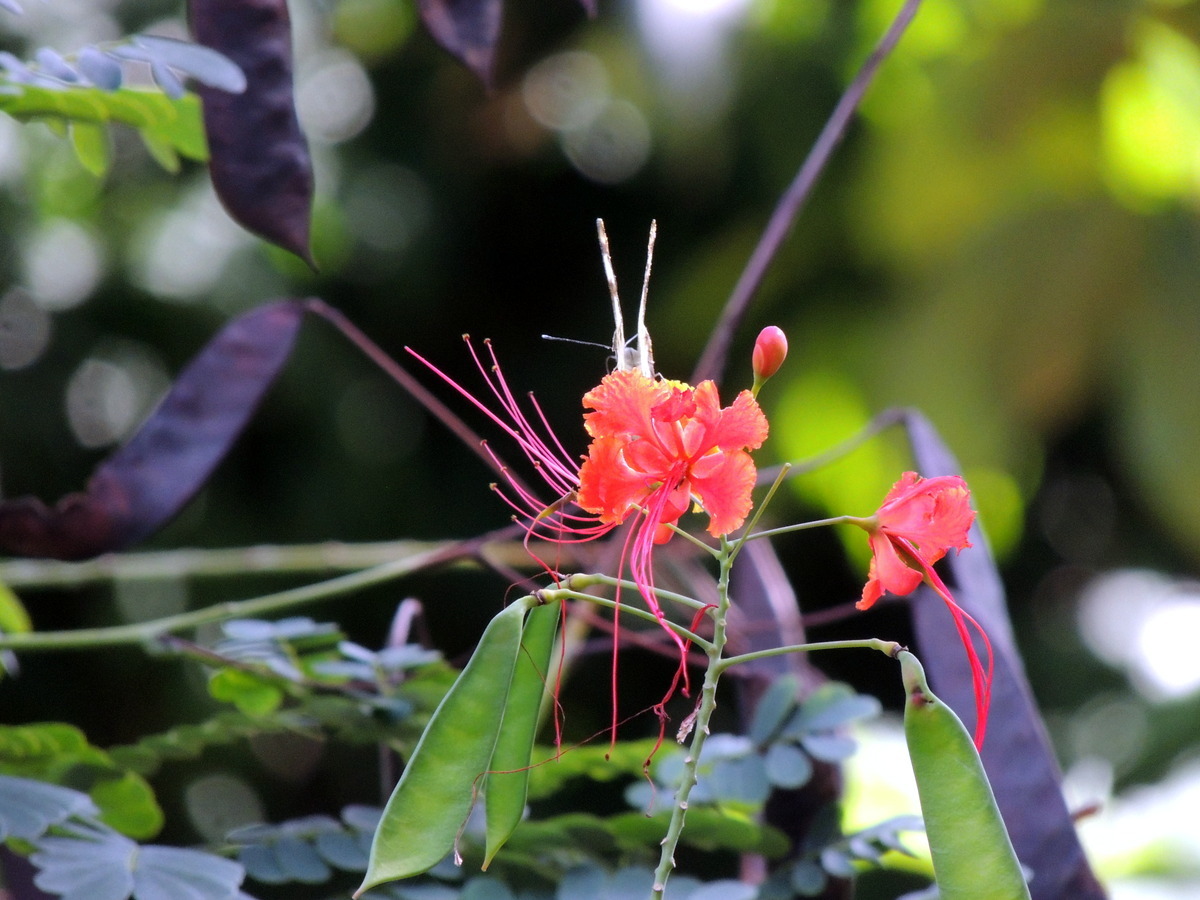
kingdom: Animalia
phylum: Arthropoda
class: Insecta
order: Lepidoptera
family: Pieridae
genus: Belenois
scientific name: Belenois calypso
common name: Calypso caper white
